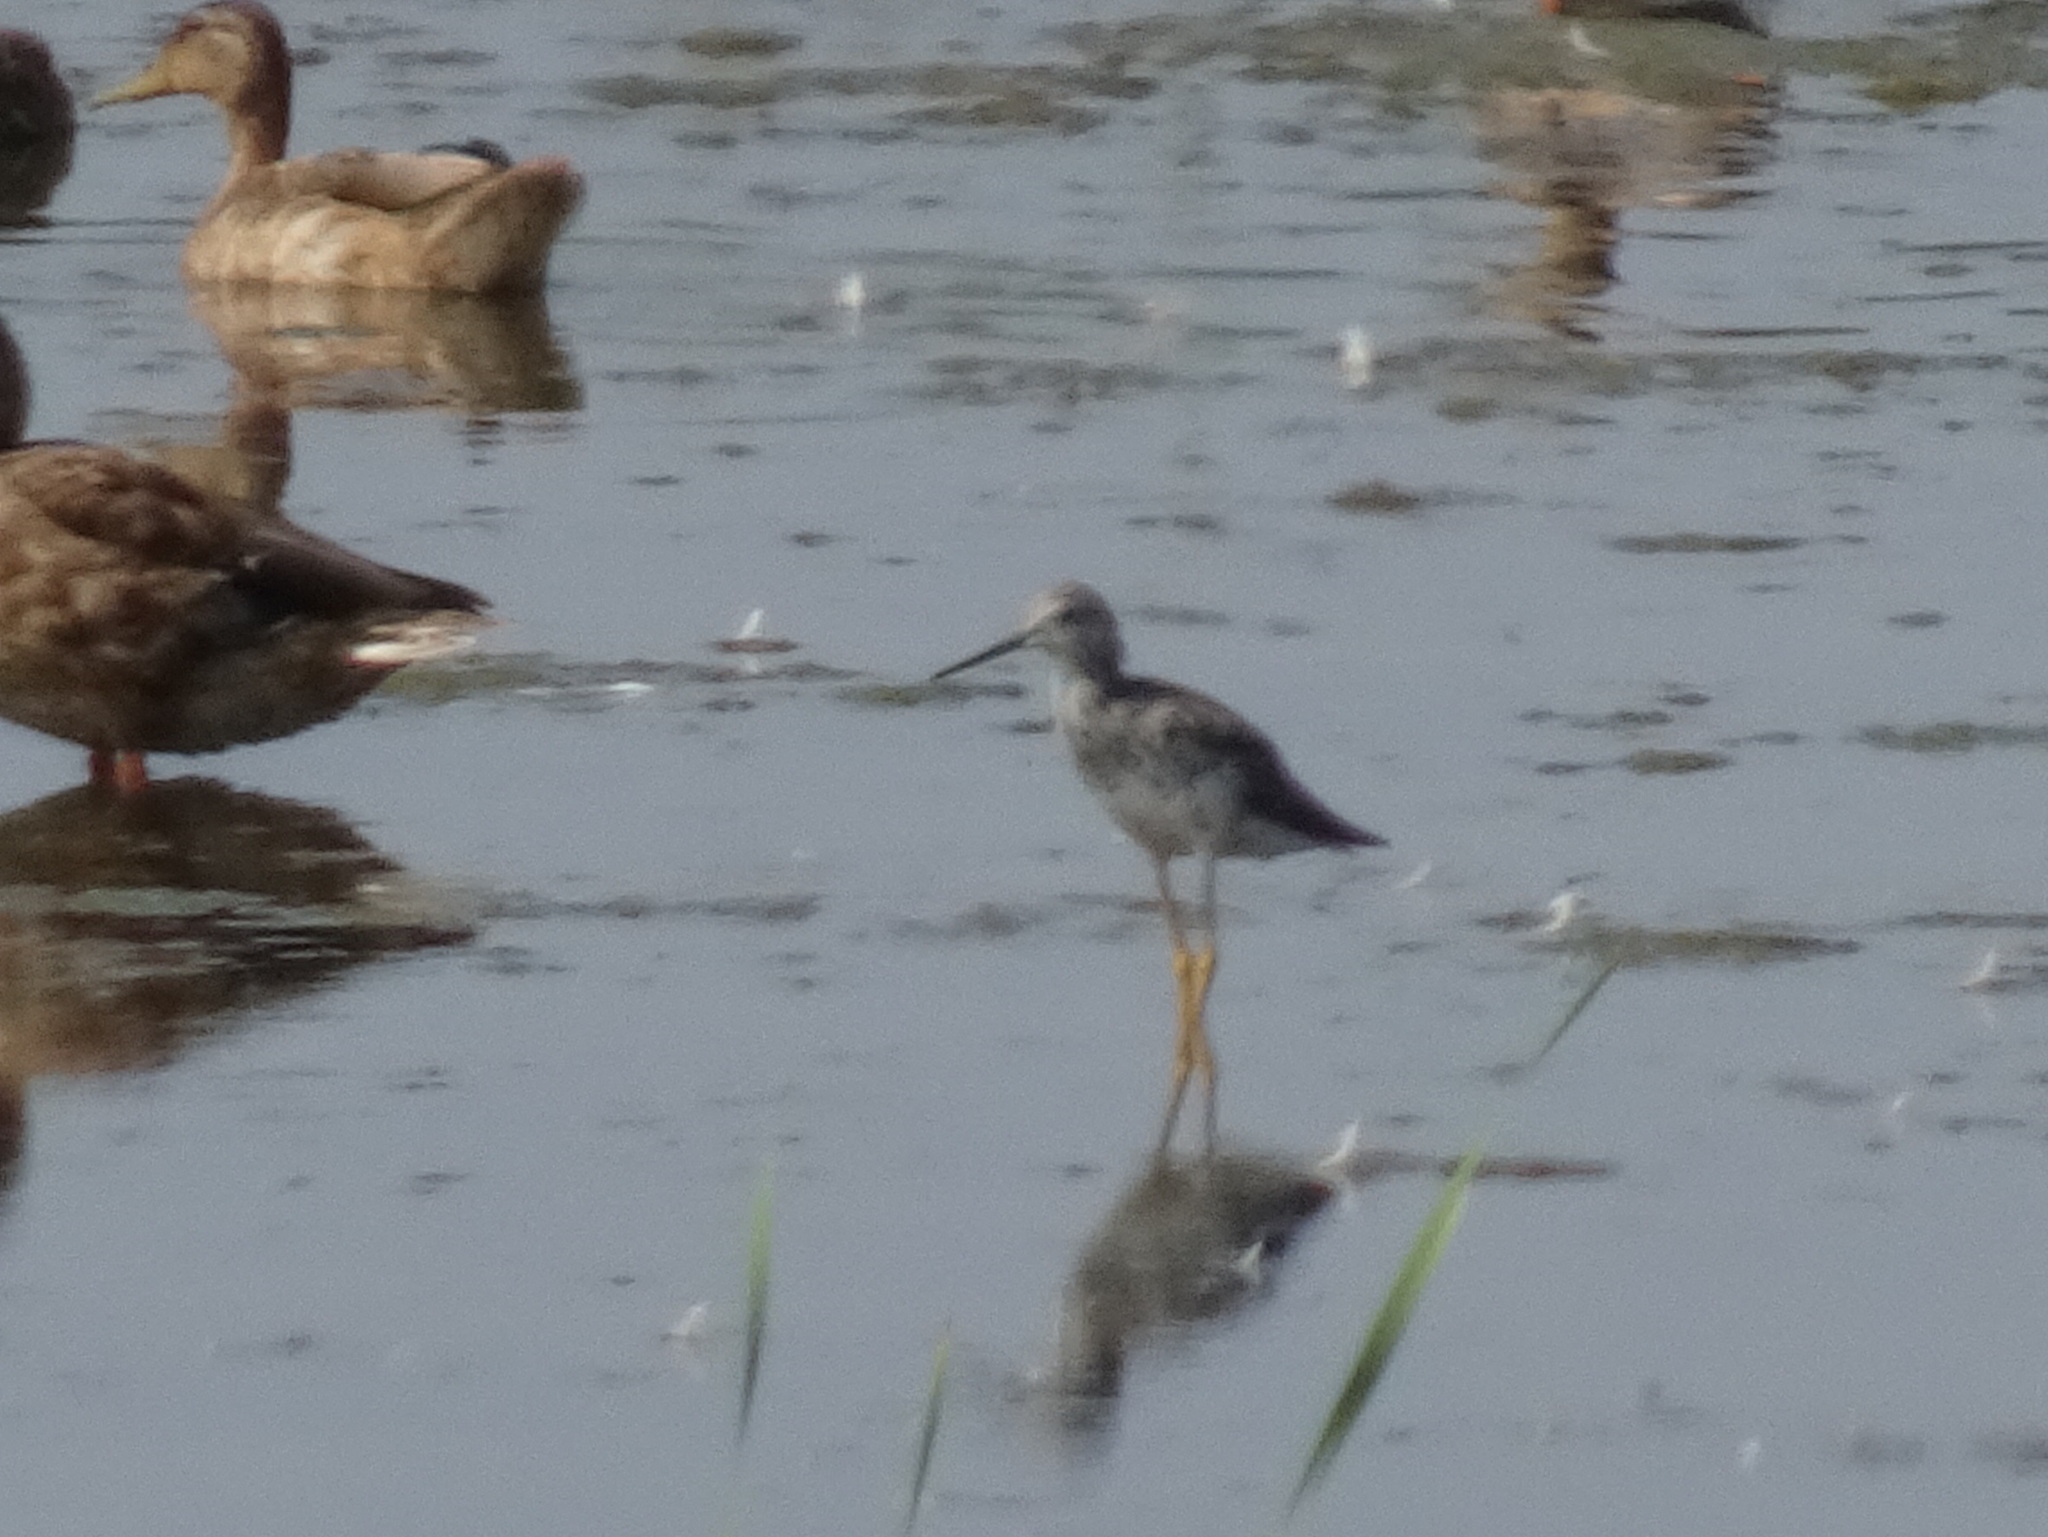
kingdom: Animalia
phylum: Chordata
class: Aves
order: Charadriiformes
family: Scolopacidae
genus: Tringa
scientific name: Tringa melanoleuca
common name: Greater yellowlegs
